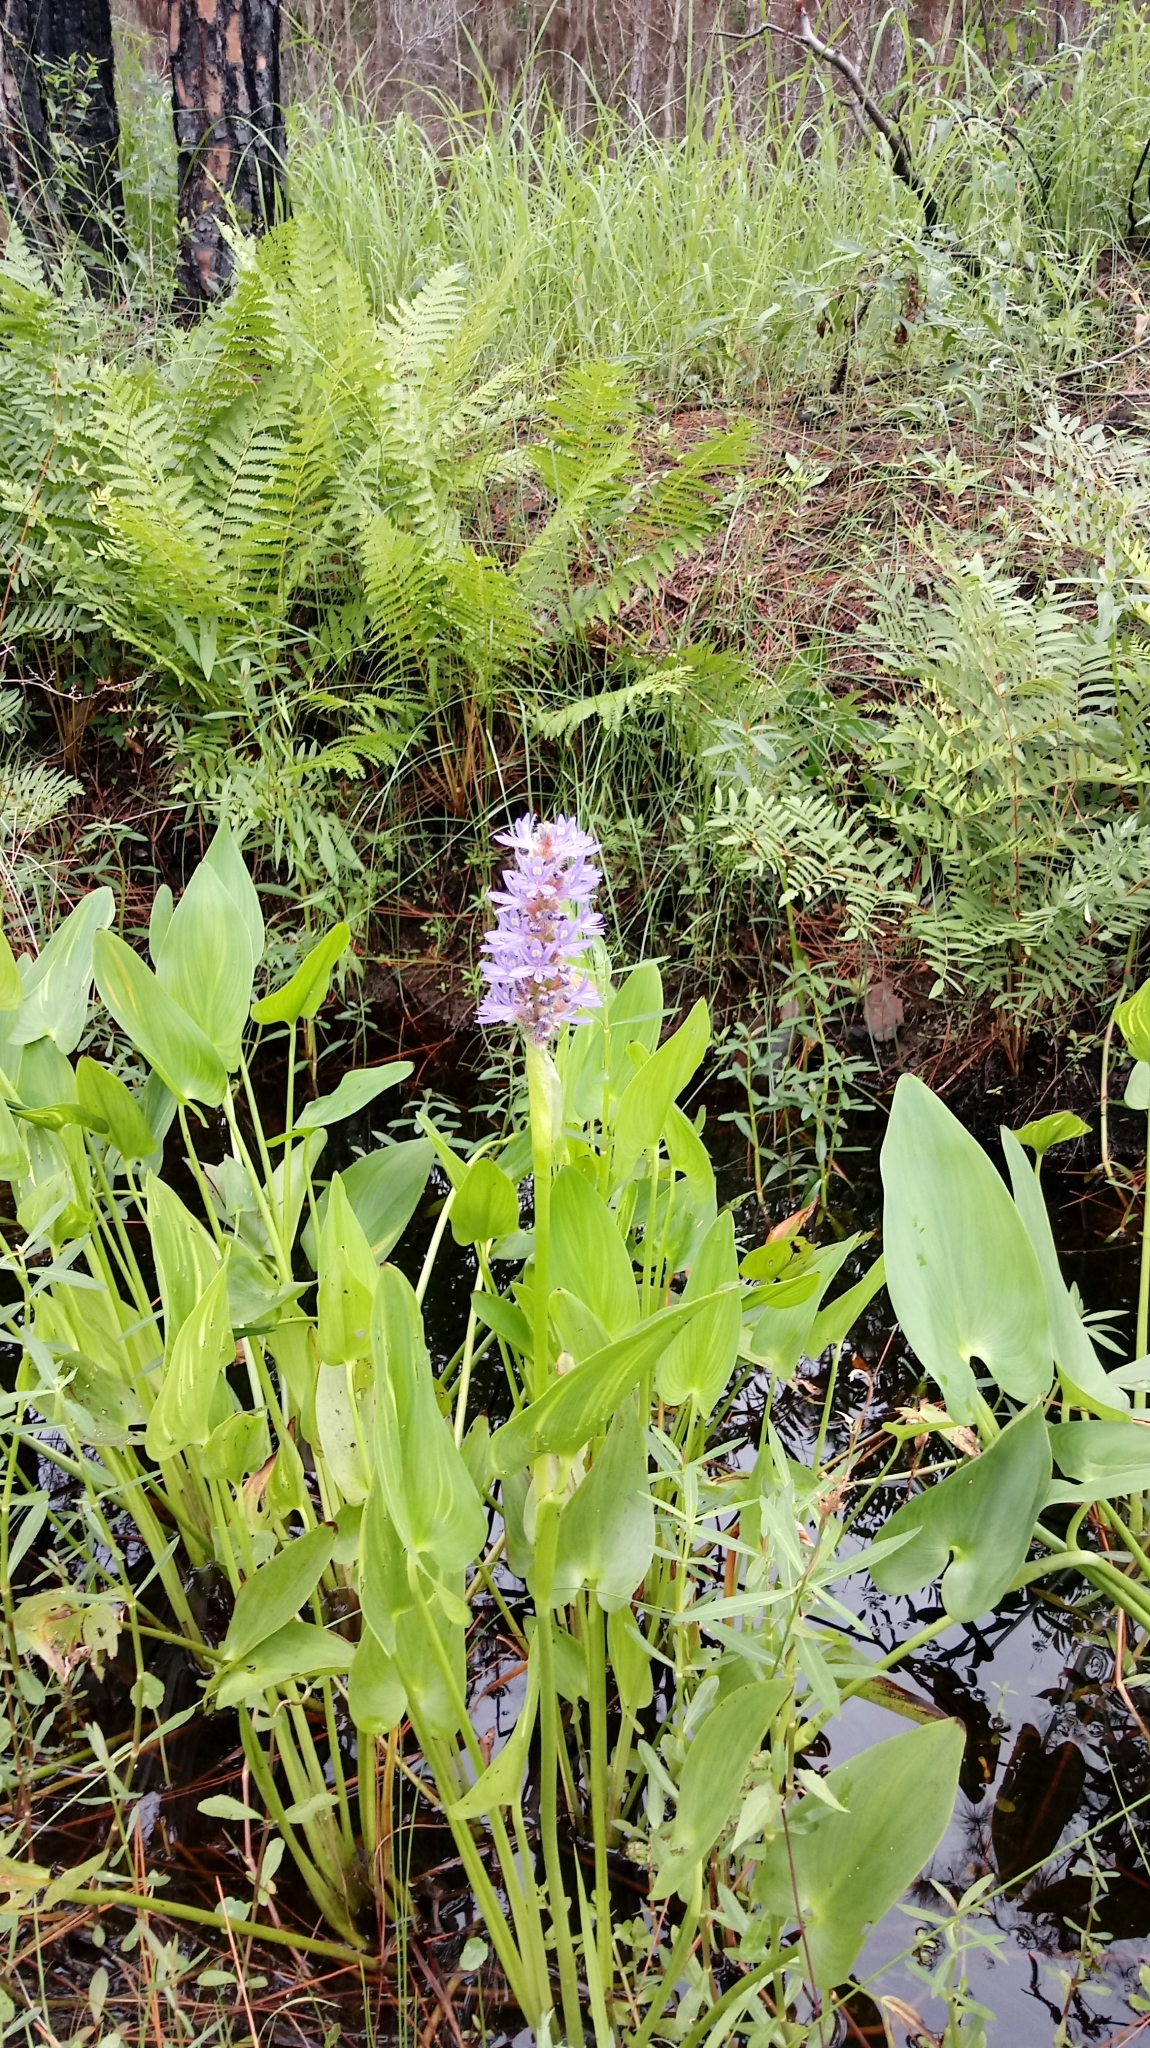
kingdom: Plantae
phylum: Tracheophyta
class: Liliopsida
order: Commelinales
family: Pontederiaceae
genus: Pontederia
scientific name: Pontederia cordata
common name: Pickerelweed
